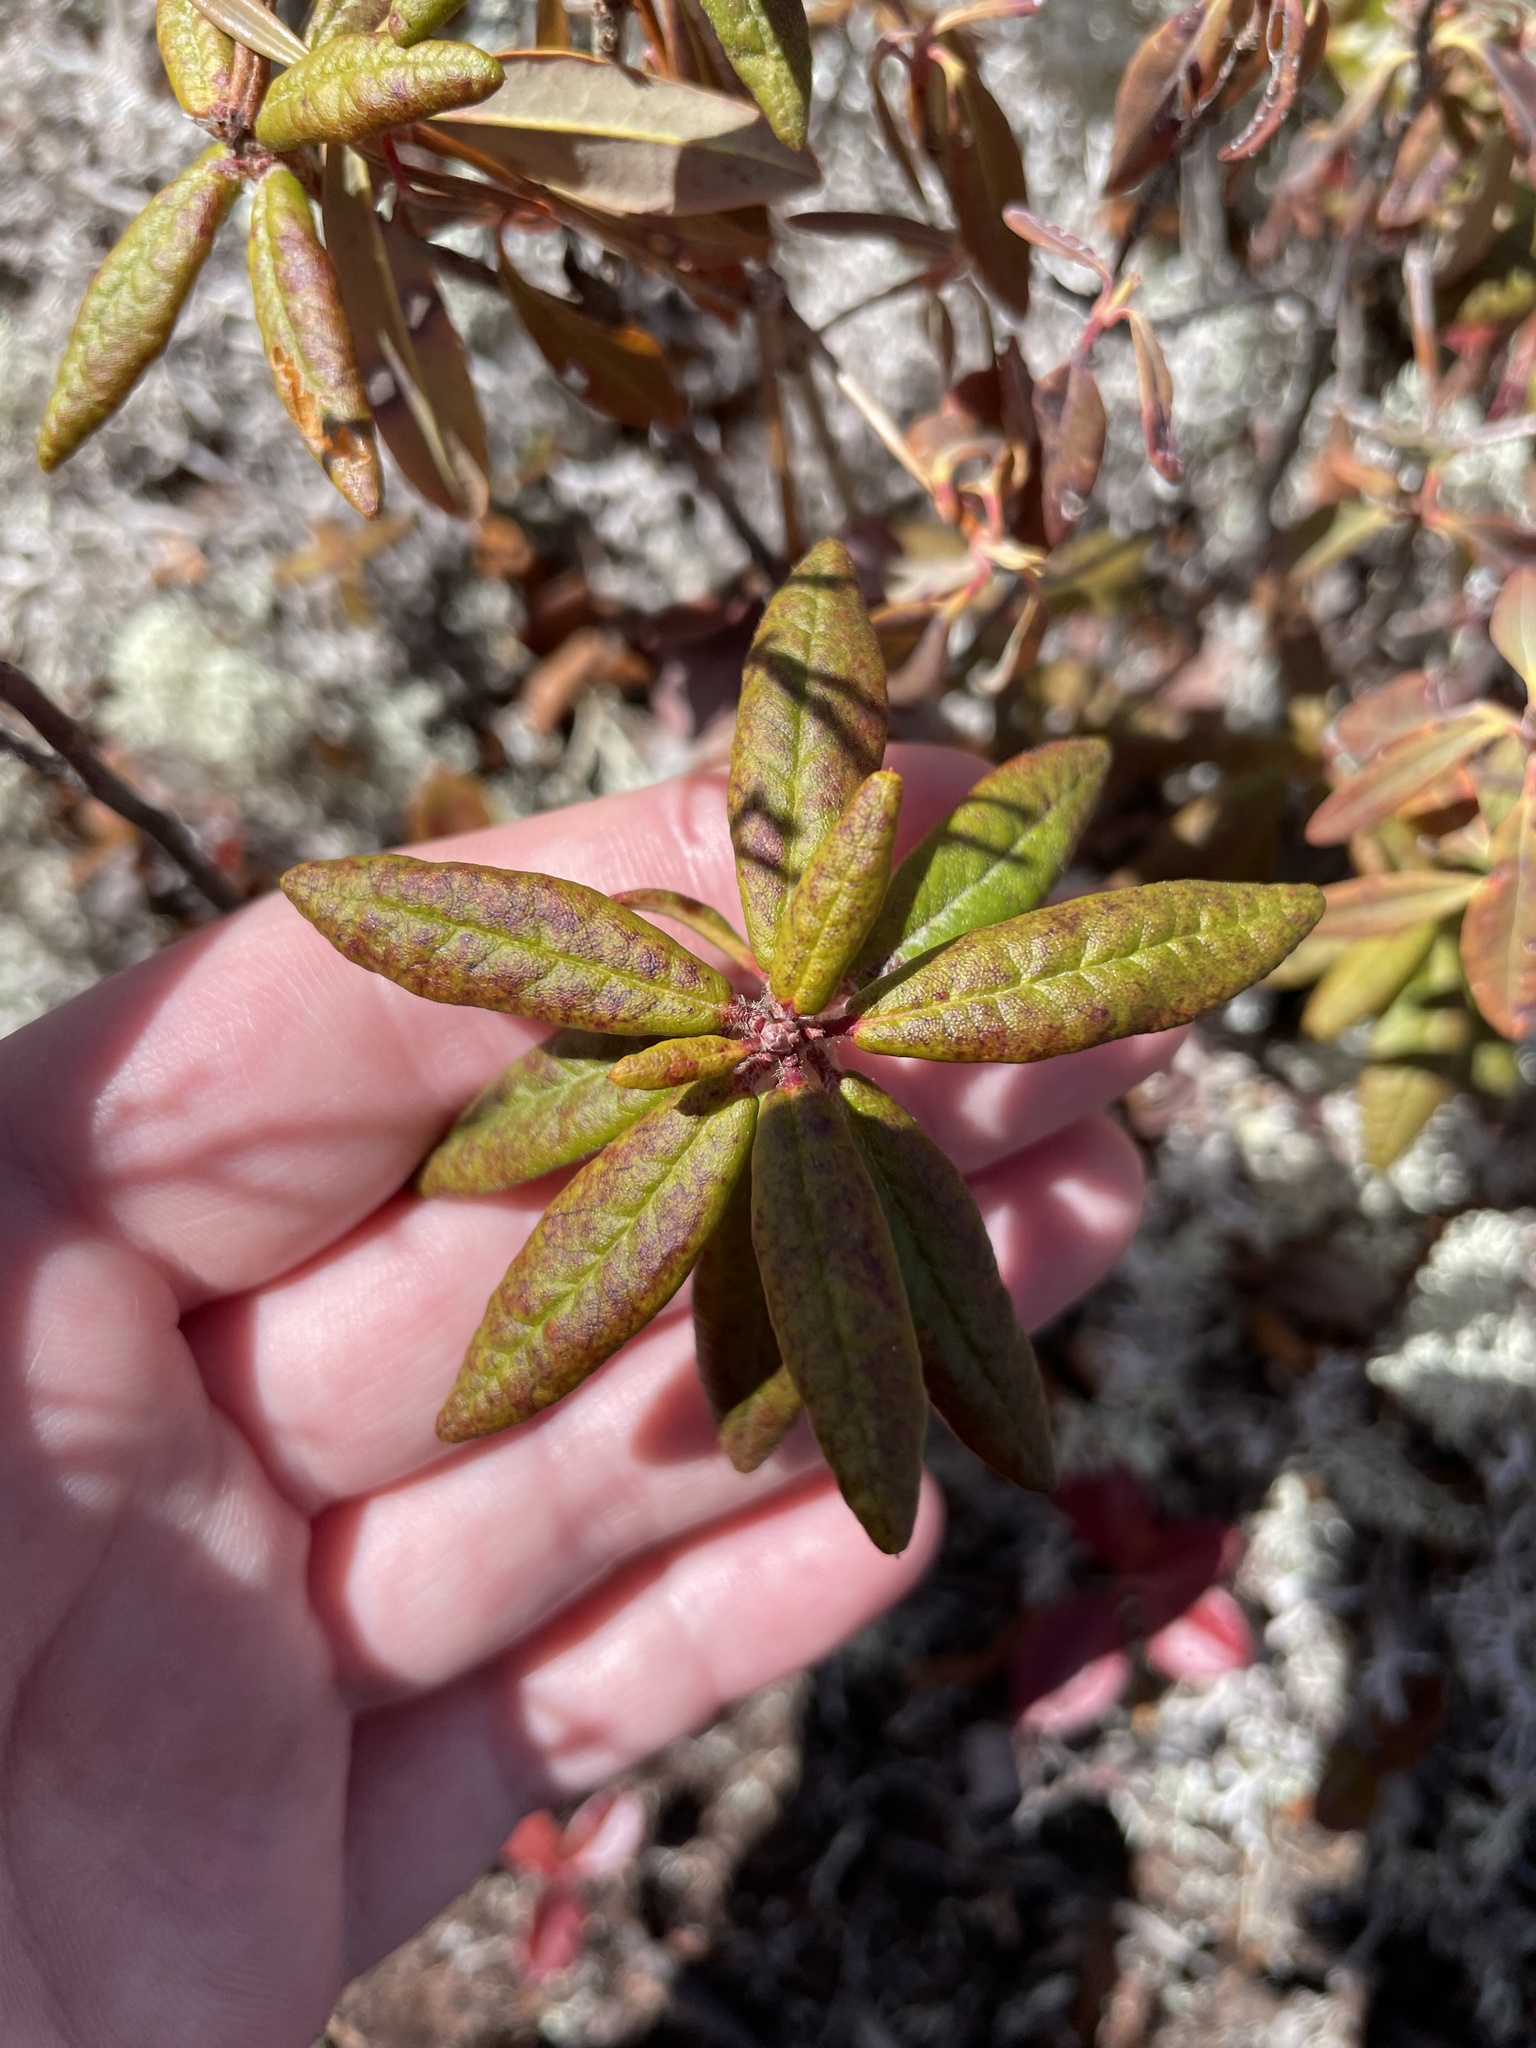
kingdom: Plantae
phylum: Tracheophyta
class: Magnoliopsida
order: Ericales
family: Ericaceae
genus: Rhododendron
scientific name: Rhododendron groenlandicum
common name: Bog labrador tea
